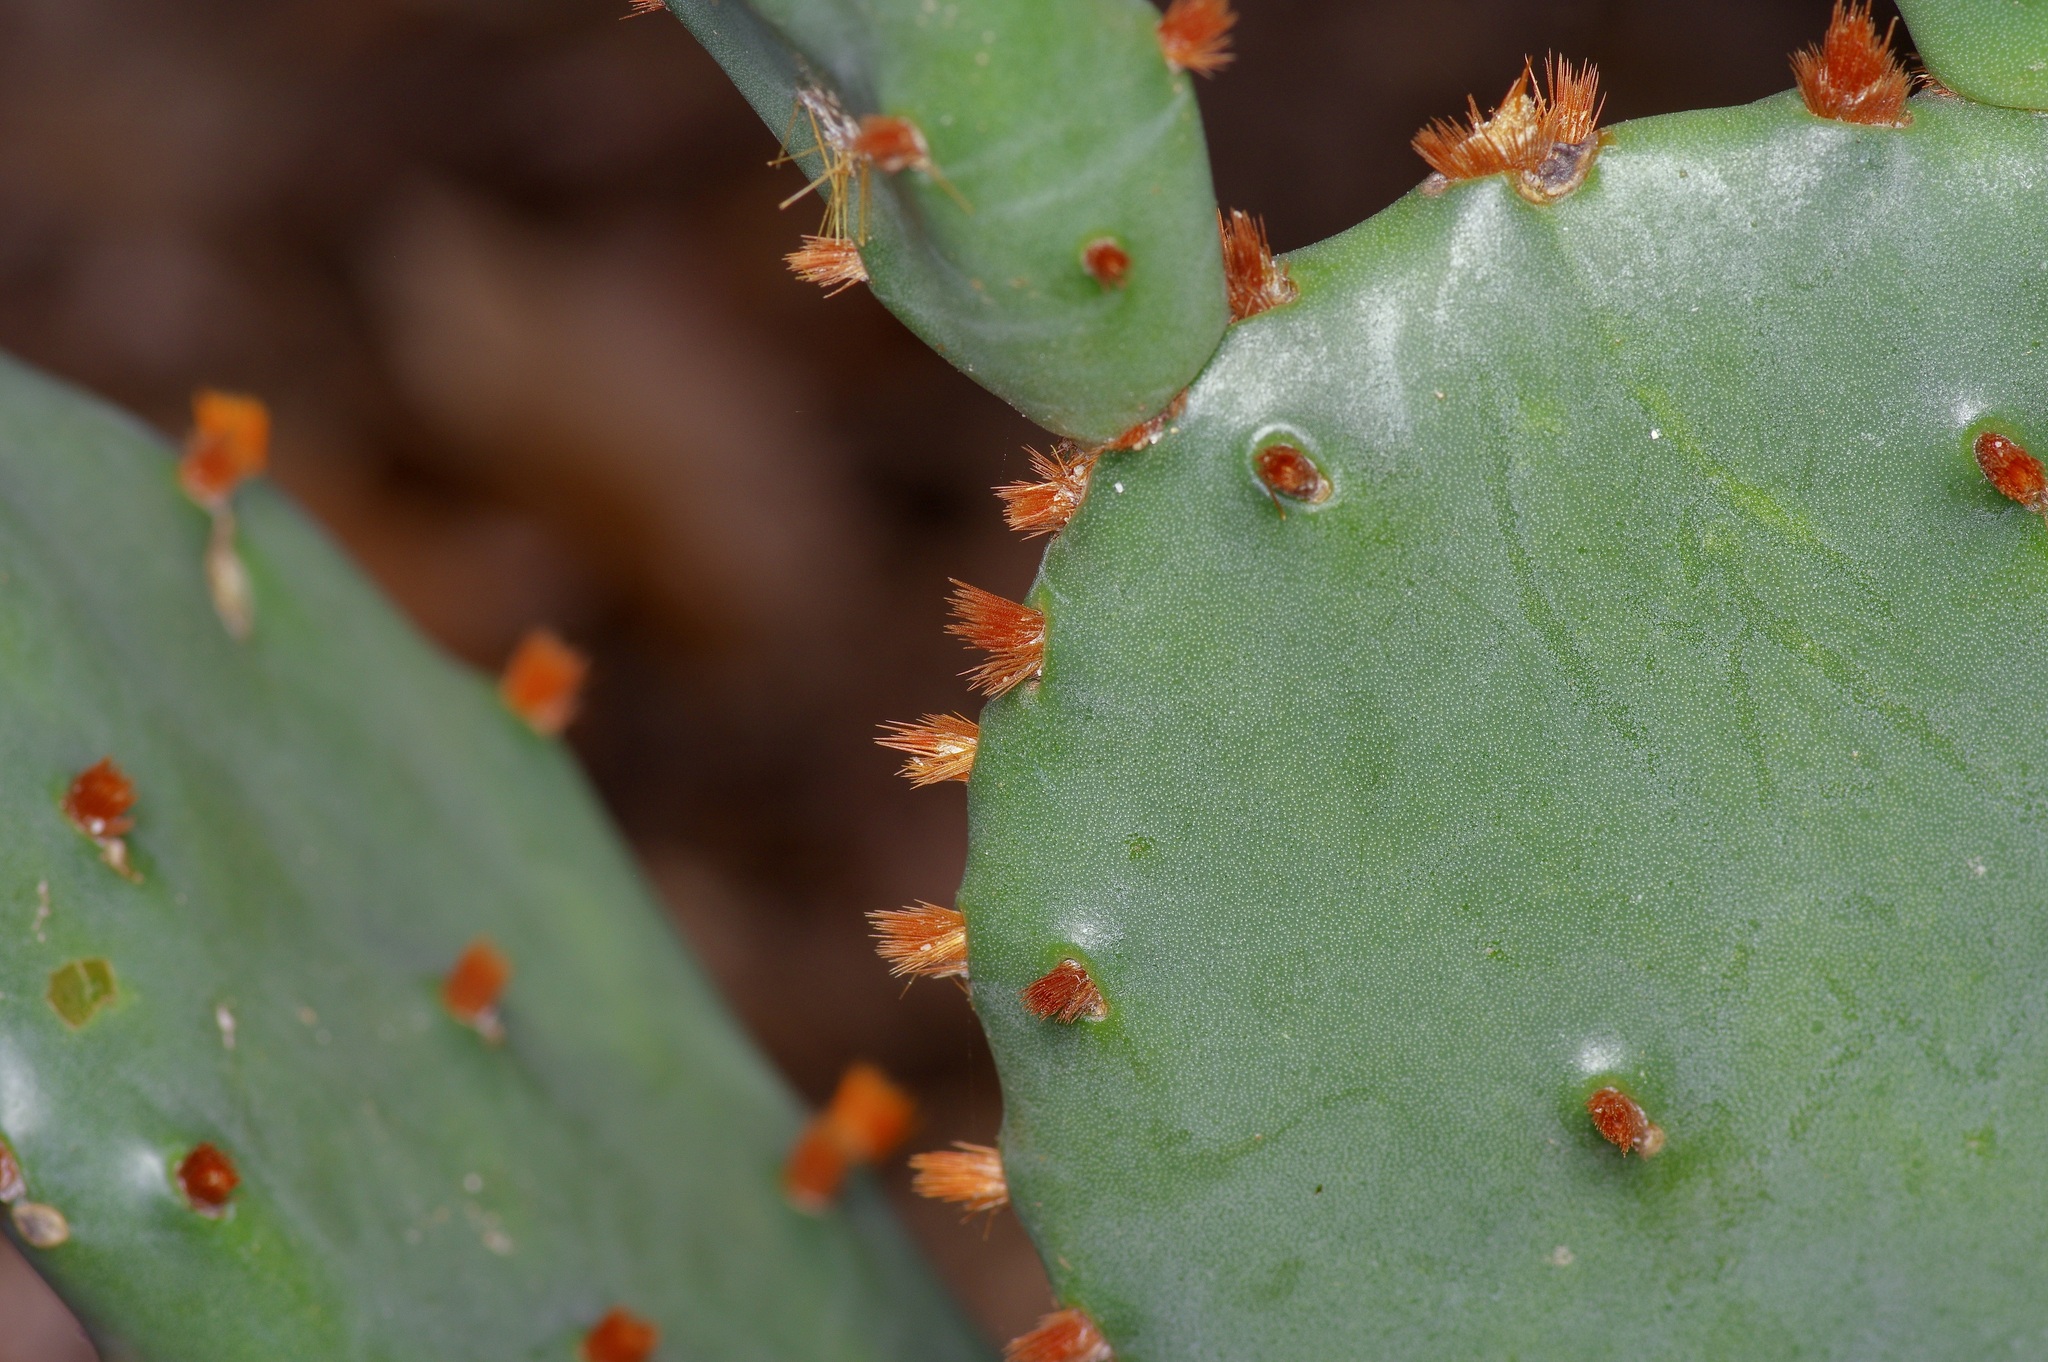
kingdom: Plantae
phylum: Tracheophyta
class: Magnoliopsida
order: Caryophyllales
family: Cactaceae
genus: Opuntia
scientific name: Opuntia macrorhiza
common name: Grassland pricklypear
